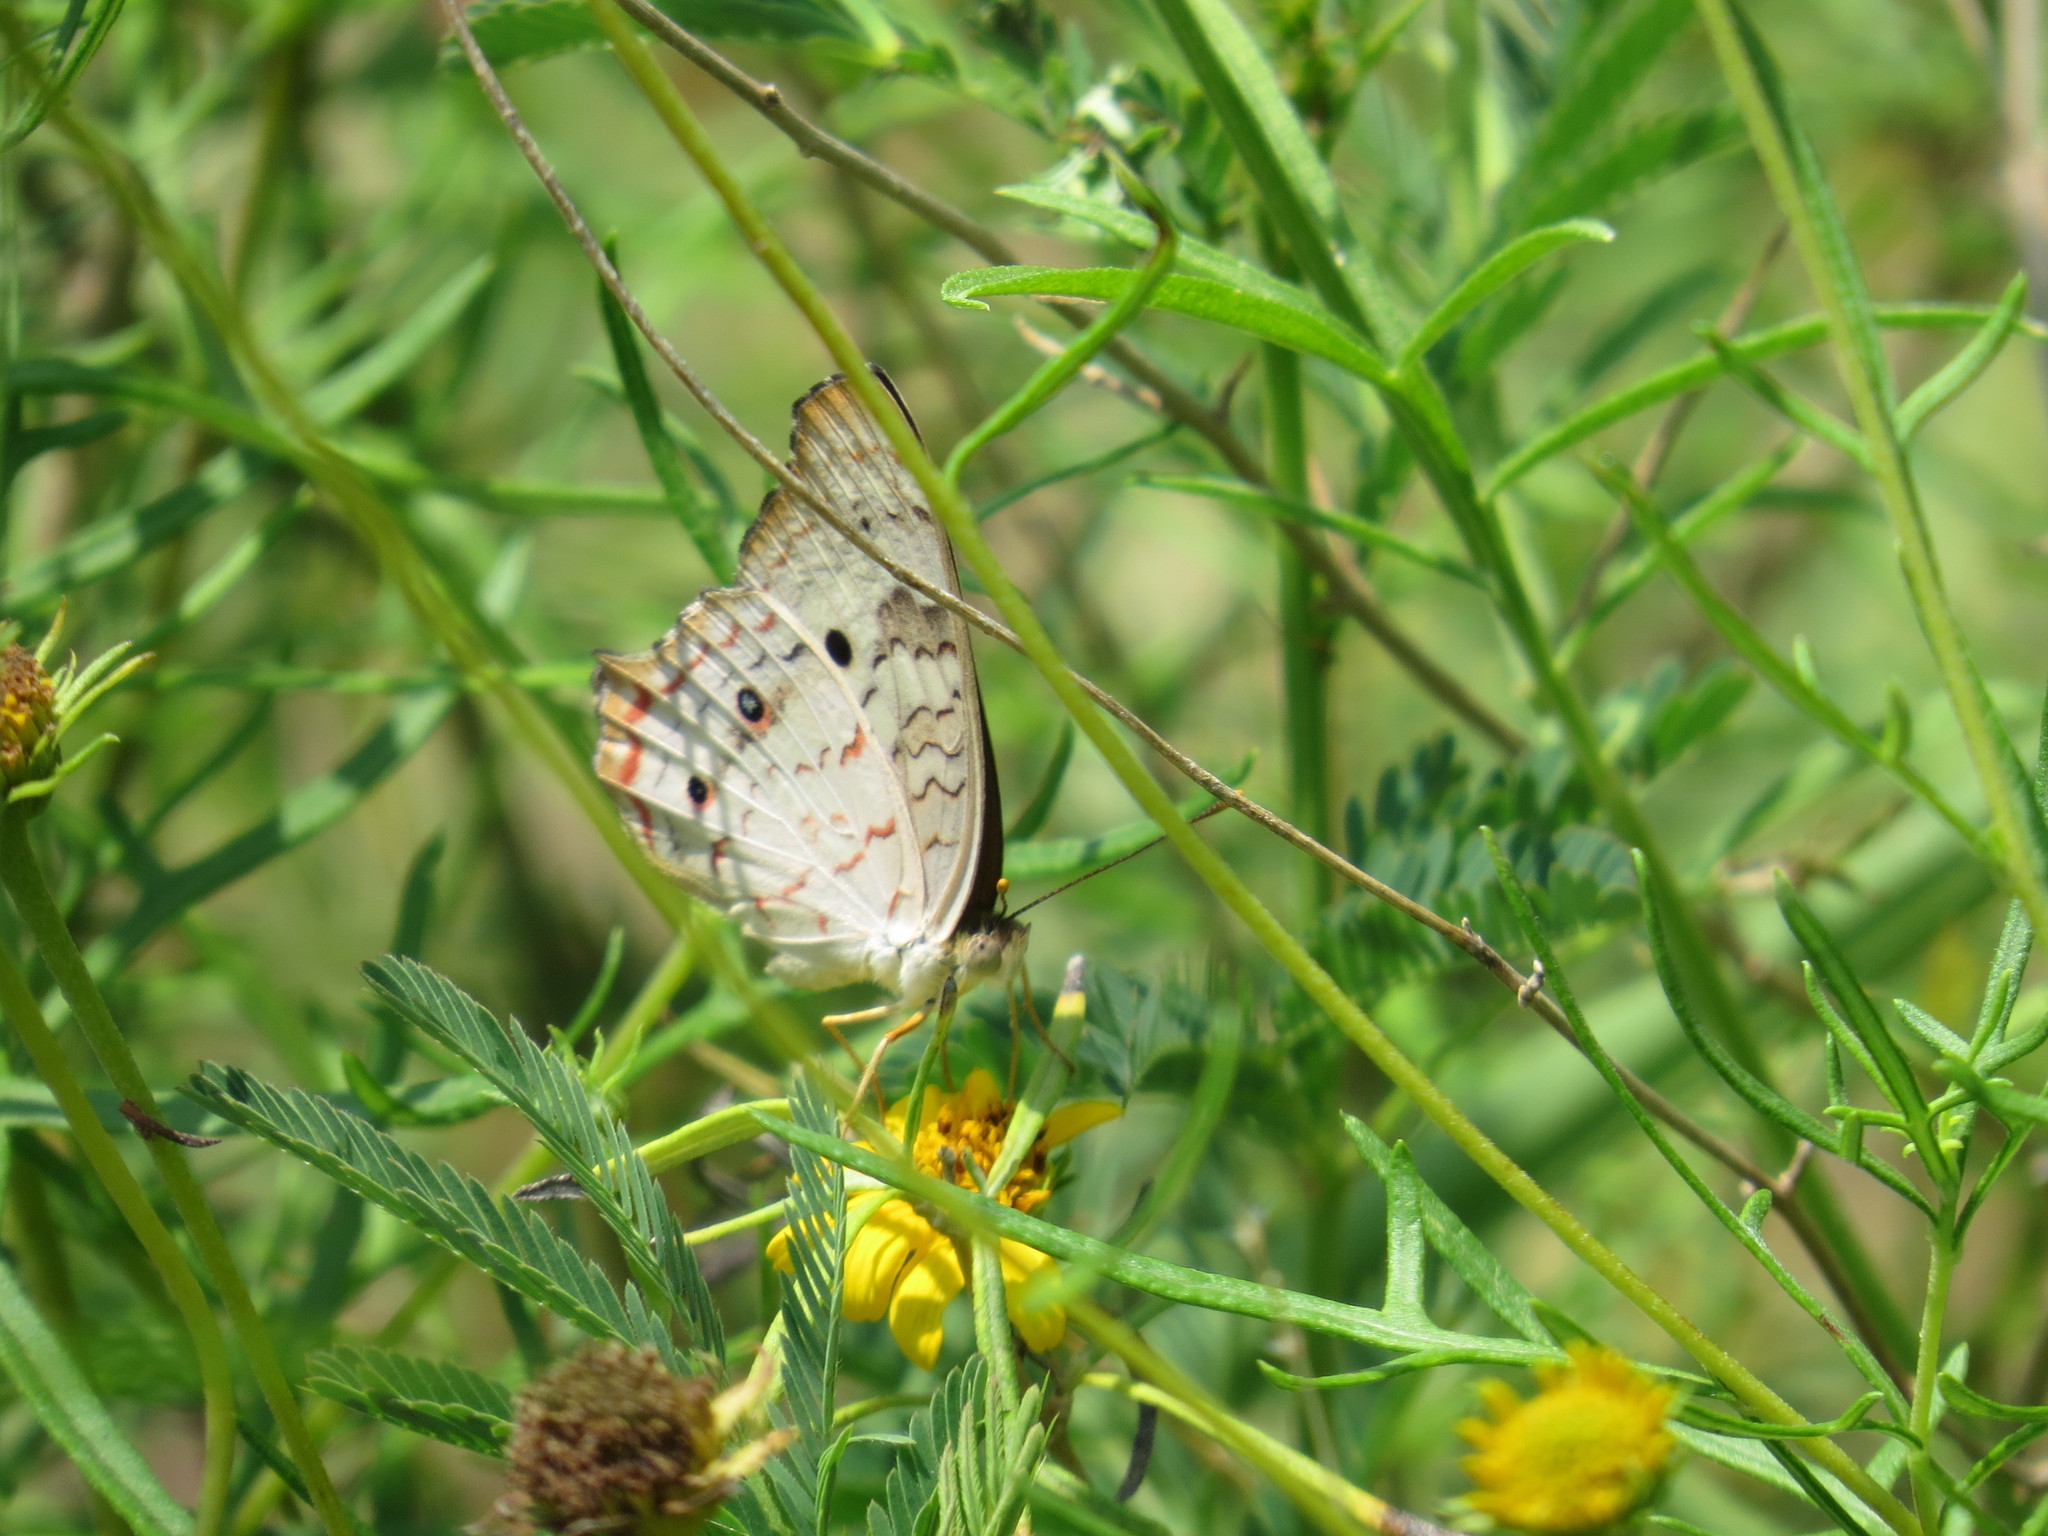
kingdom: Animalia
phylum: Arthropoda
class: Insecta
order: Lepidoptera
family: Nymphalidae
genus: Anartia
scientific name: Anartia jatrophae
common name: White peacock
